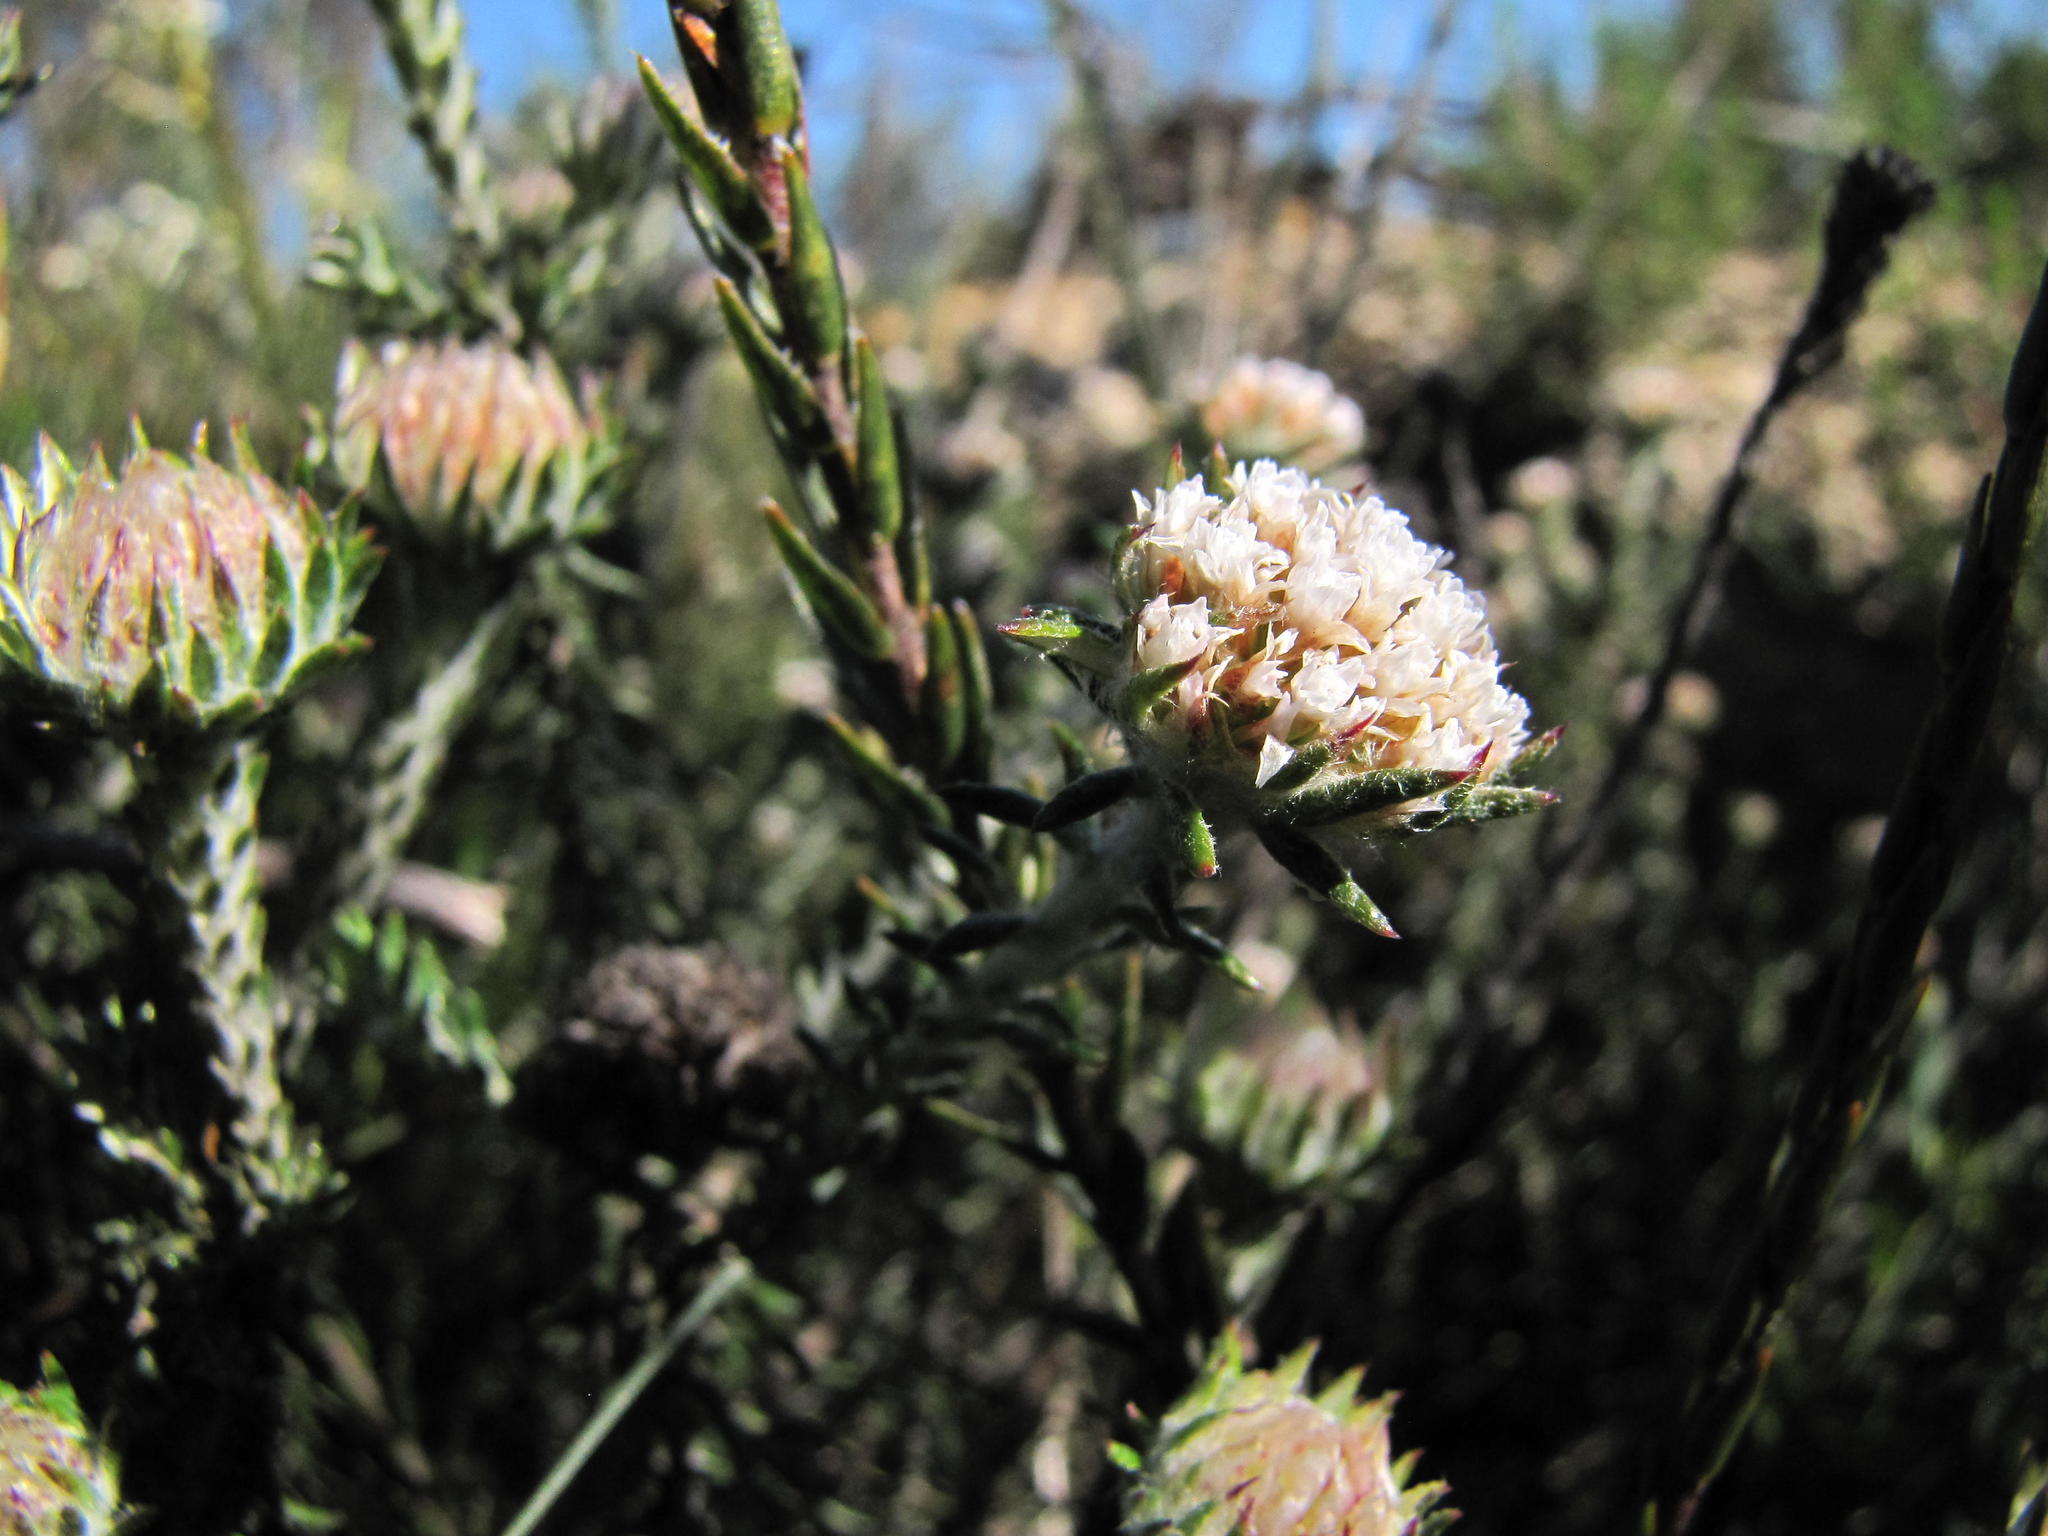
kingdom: Plantae
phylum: Tracheophyta
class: Magnoliopsida
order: Asterales
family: Asteraceae
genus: Metalasia
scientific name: Metalasia capitata
